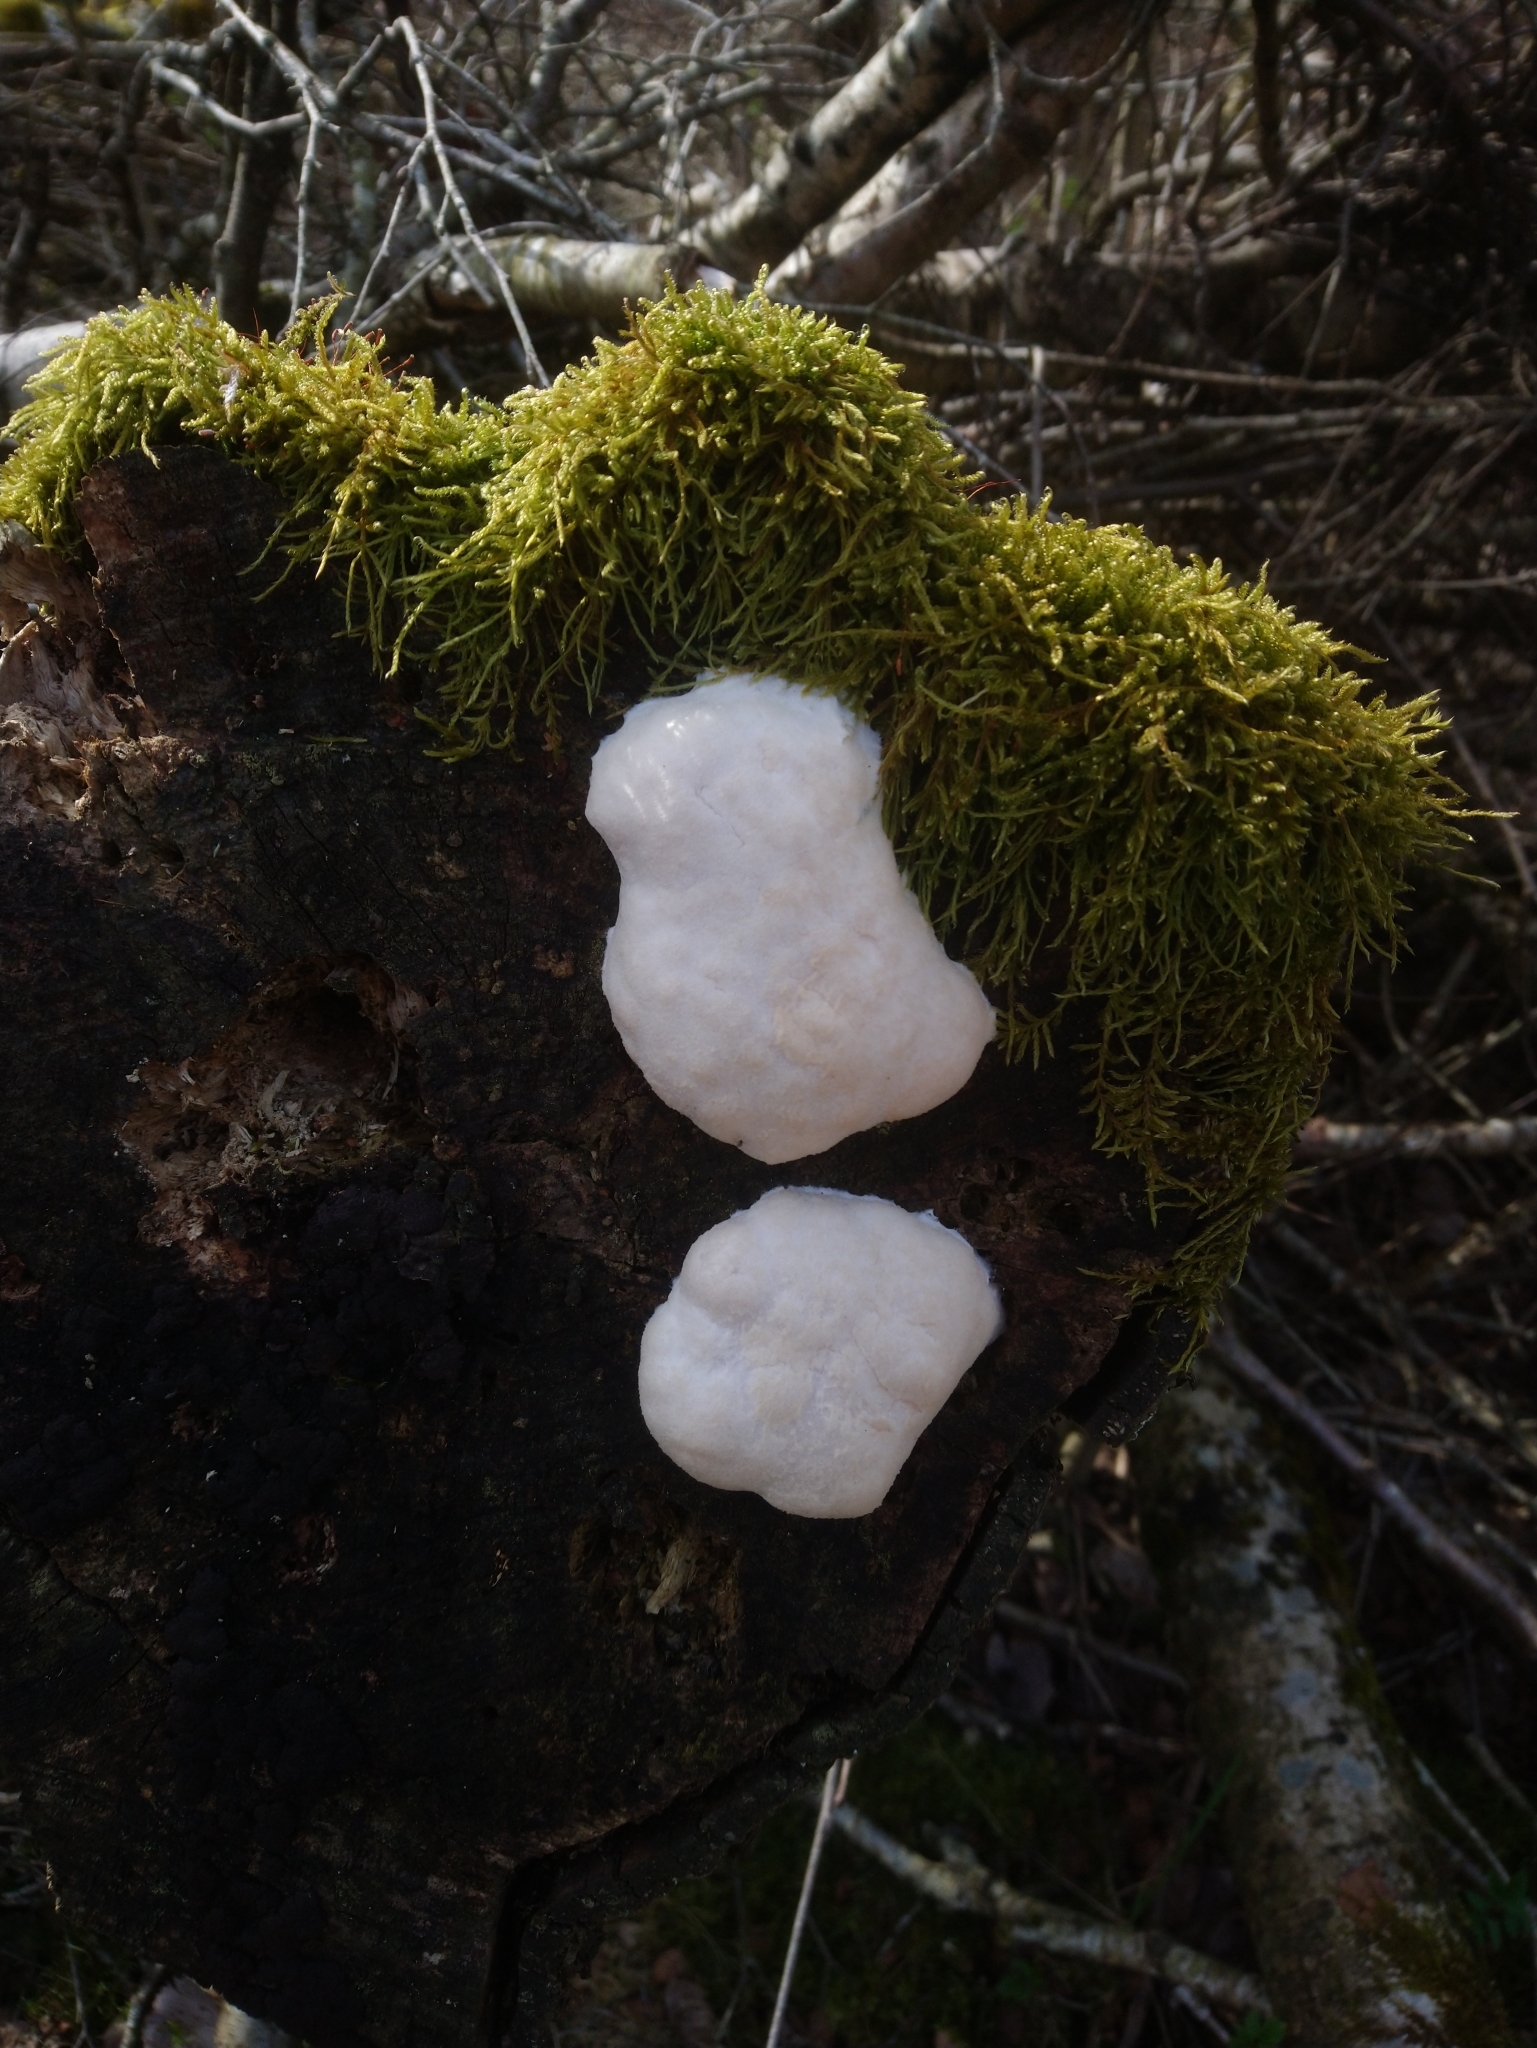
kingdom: Protozoa
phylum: Mycetozoa
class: Myxomycetes
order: Cribrariales
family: Tubiferaceae
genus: Reticularia
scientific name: Reticularia lycoperdon
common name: False puffball
